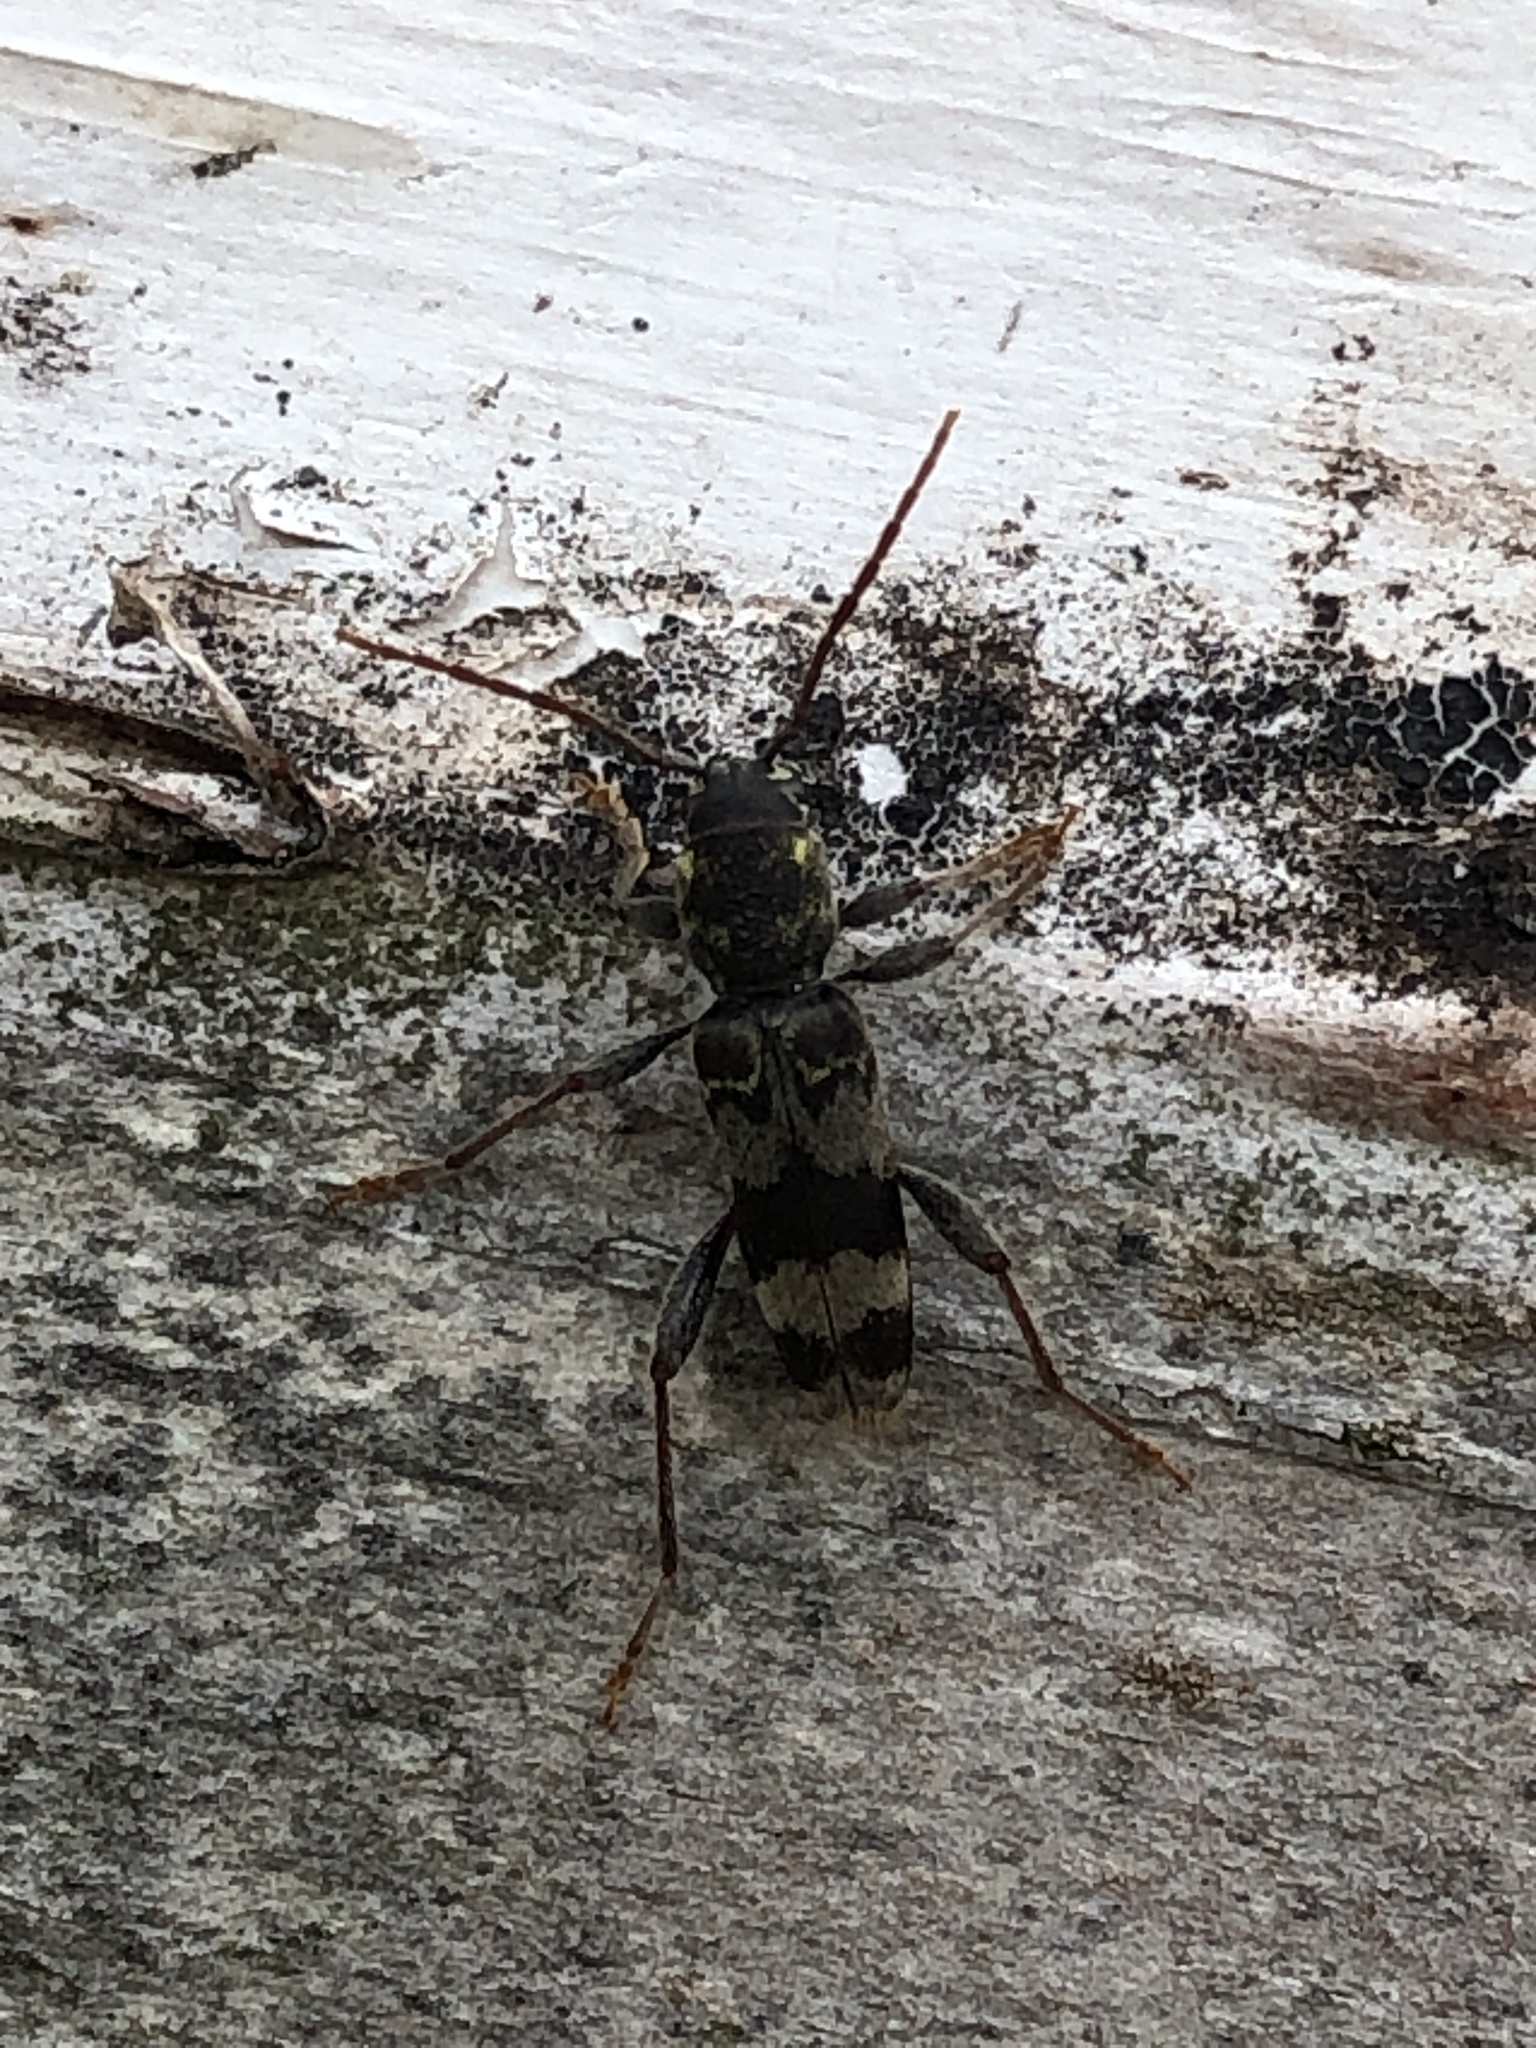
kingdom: Animalia
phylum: Arthropoda
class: Insecta
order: Coleoptera
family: Cerambycidae
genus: Xylotrechus
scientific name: Xylotrechus colonus
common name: Long-horned beetle
